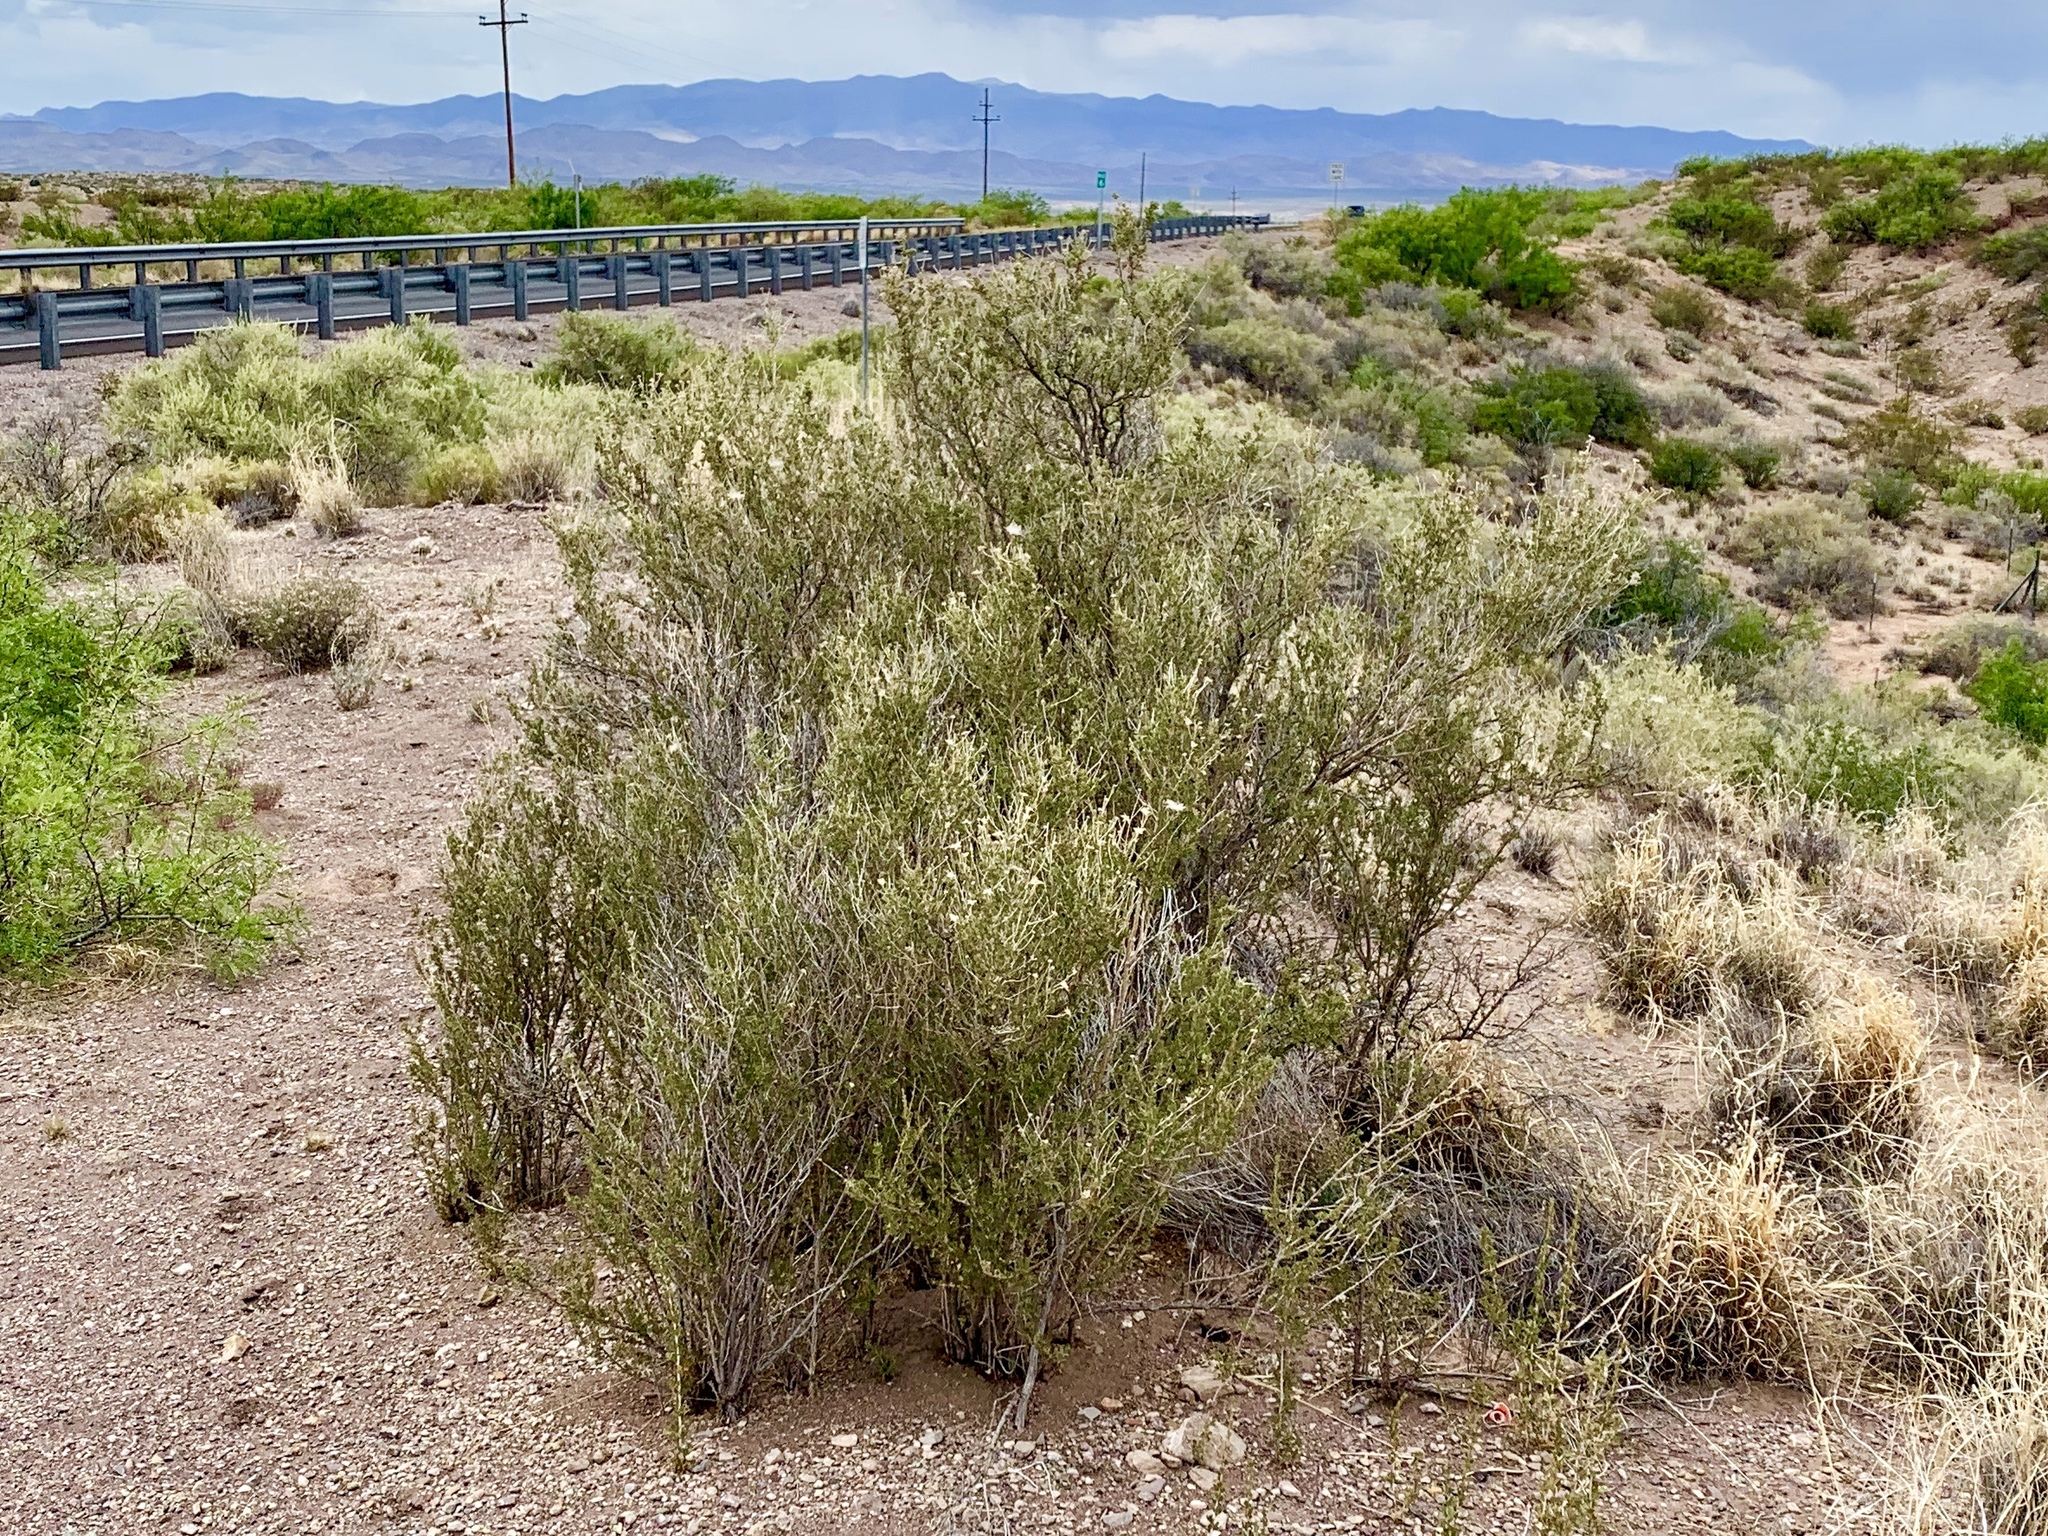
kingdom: Plantae
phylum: Tracheophyta
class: Magnoliopsida
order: Rosales
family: Rosaceae
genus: Fallugia
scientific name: Fallugia paradoxa
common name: Apache-plume
